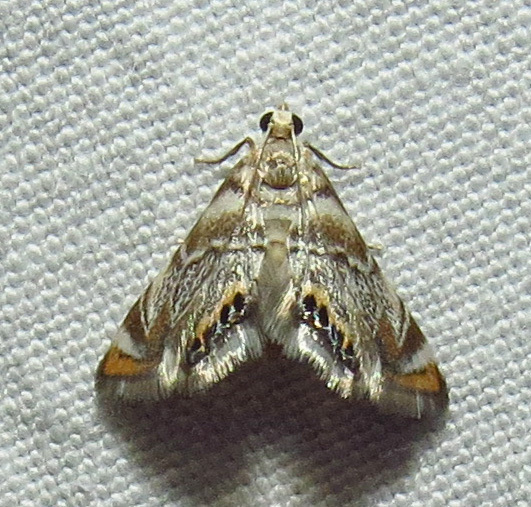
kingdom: Animalia
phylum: Arthropoda
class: Insecta
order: Lepidoptera
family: Crambidae
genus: Eoparargyractis
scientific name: Eoparargyractis irroratalis
